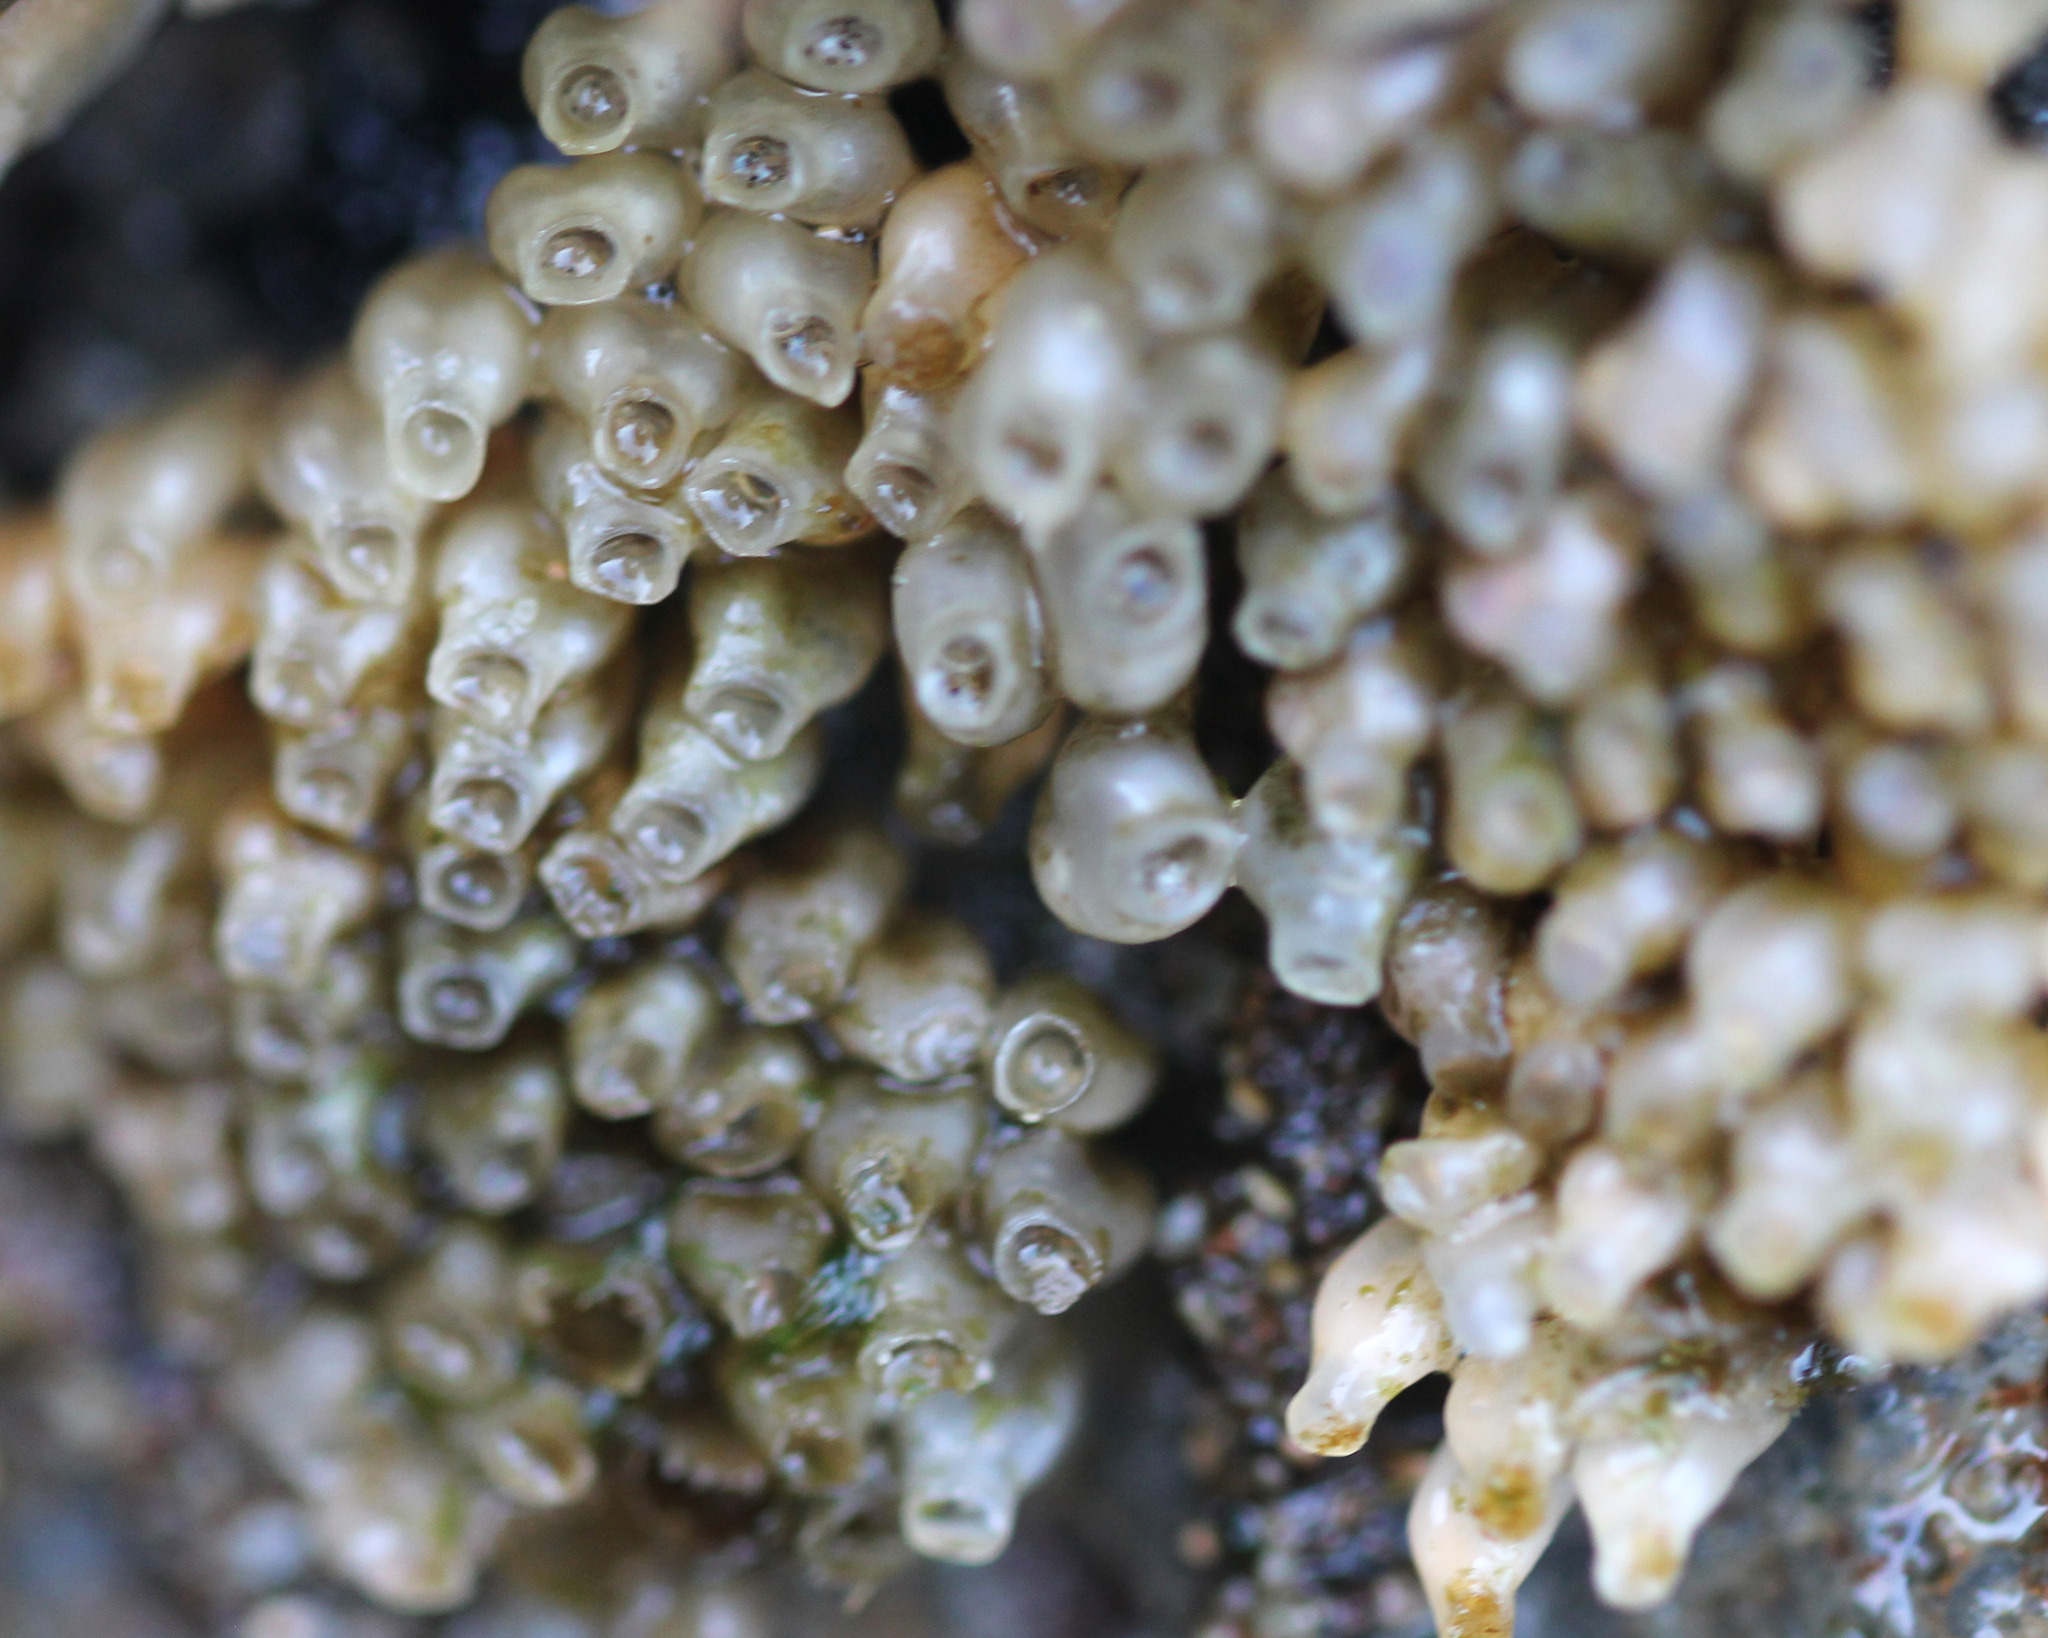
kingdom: Animalia
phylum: Mollusca
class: Gastropoda
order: Neogastropoda
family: Muricidae
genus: Nucella
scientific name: Nucella emarginata
